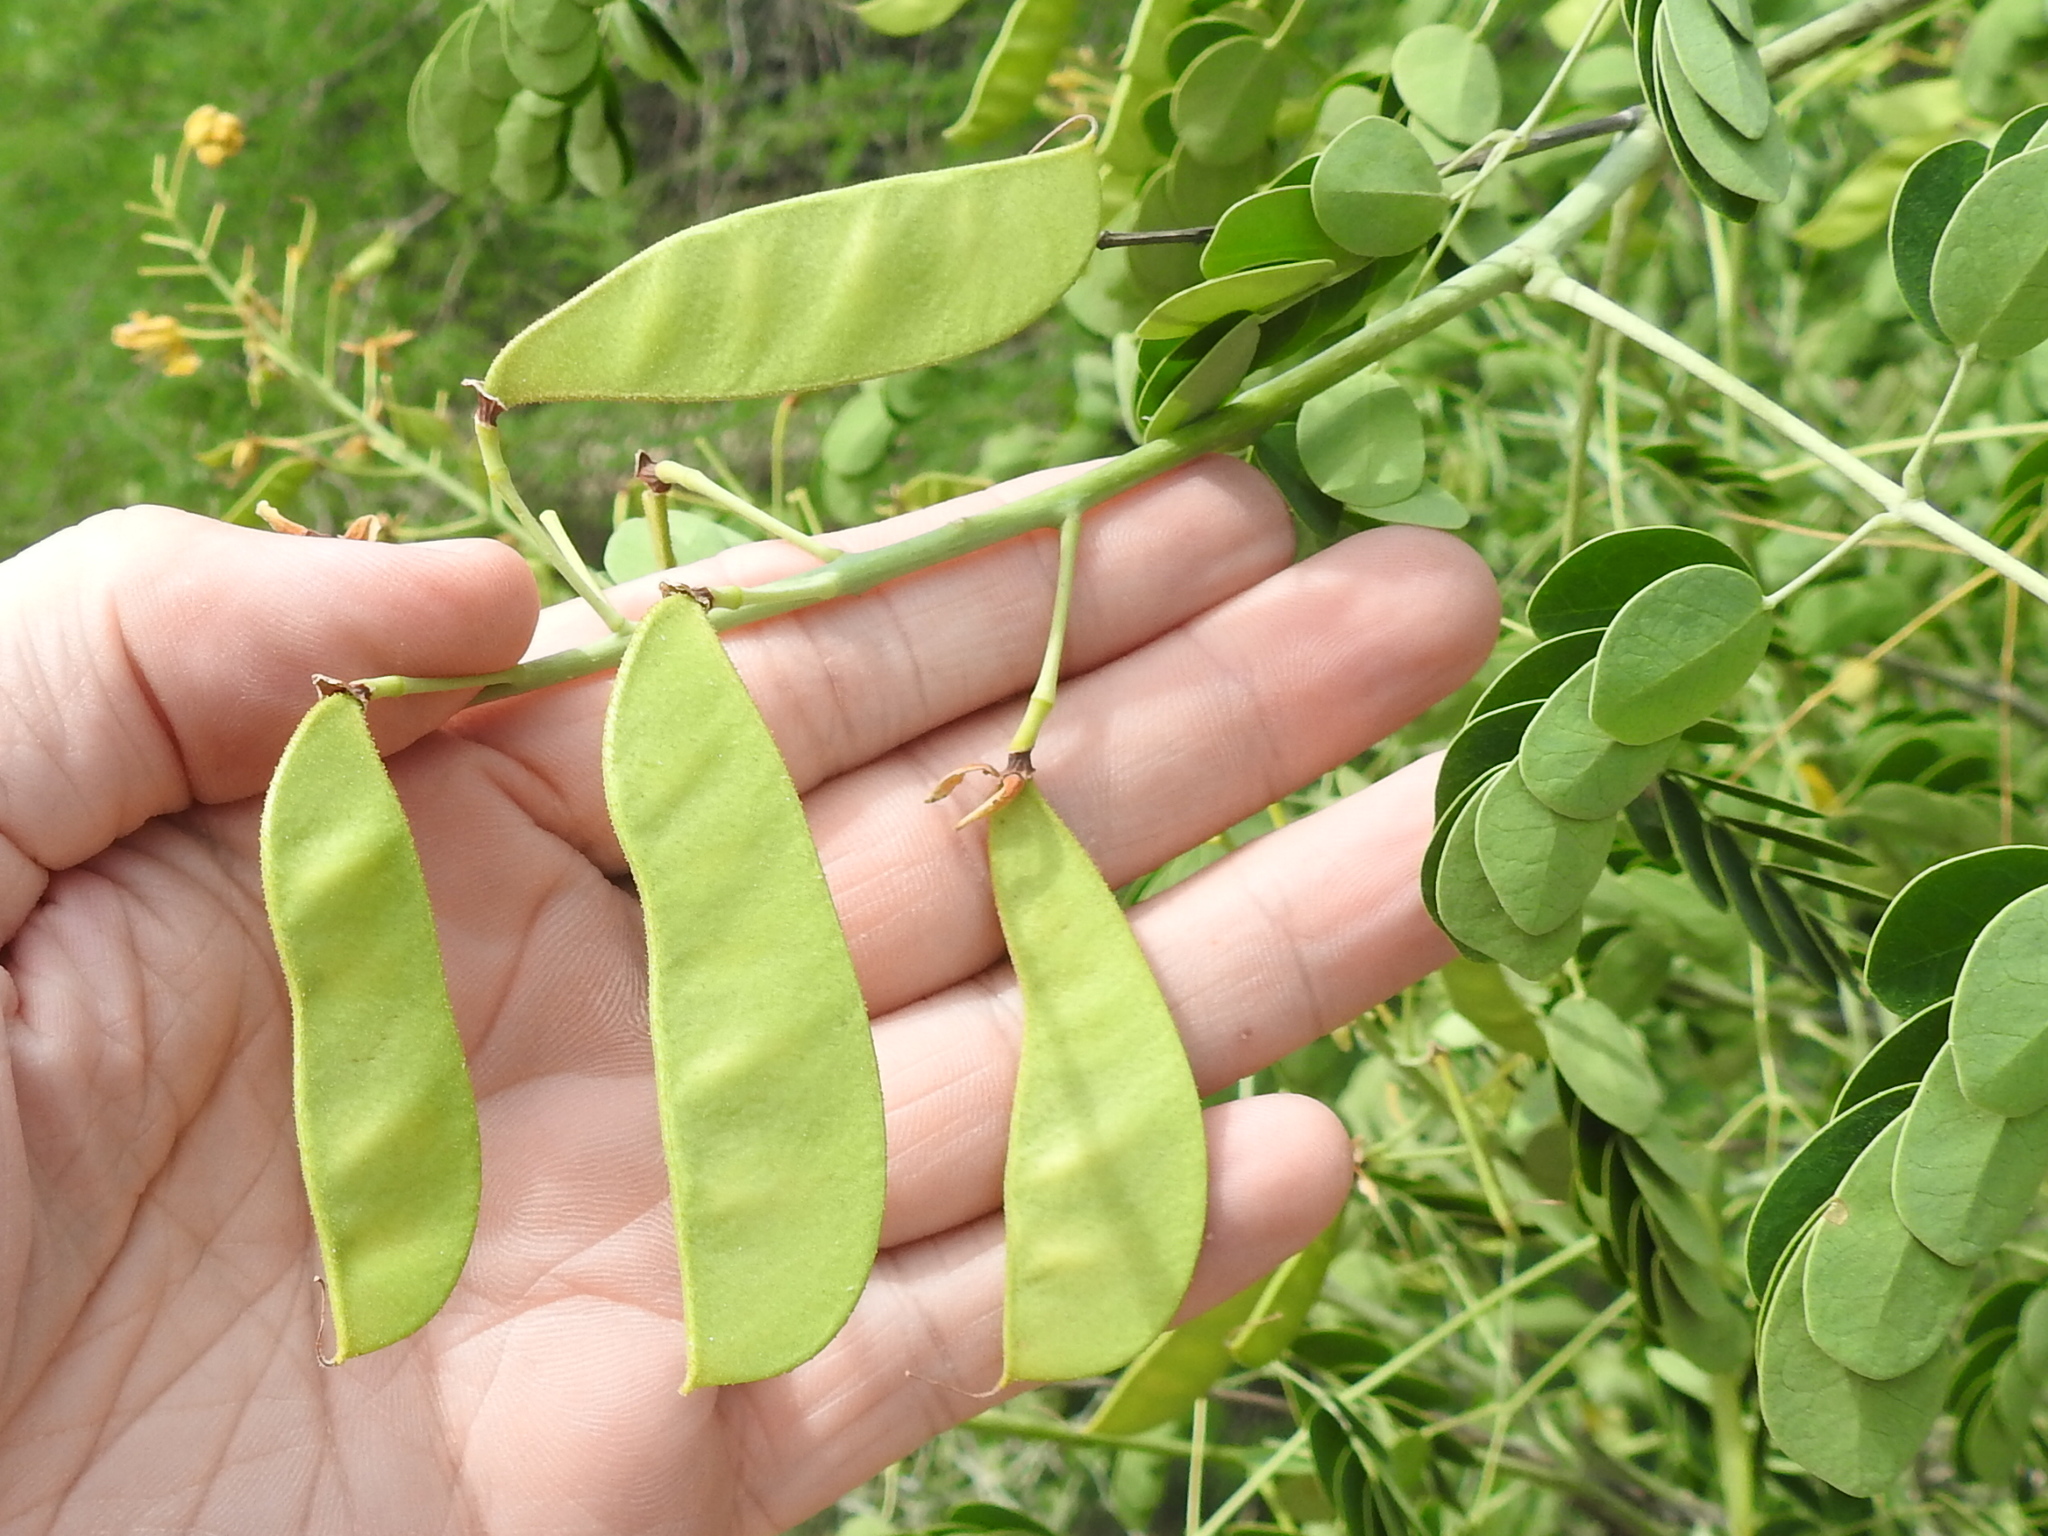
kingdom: Plantae
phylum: Tracheophyta
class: Magnoliopsida
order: Fabales
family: Fabaceae
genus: Erythrostemon
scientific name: Erythrostemon mexicanus
